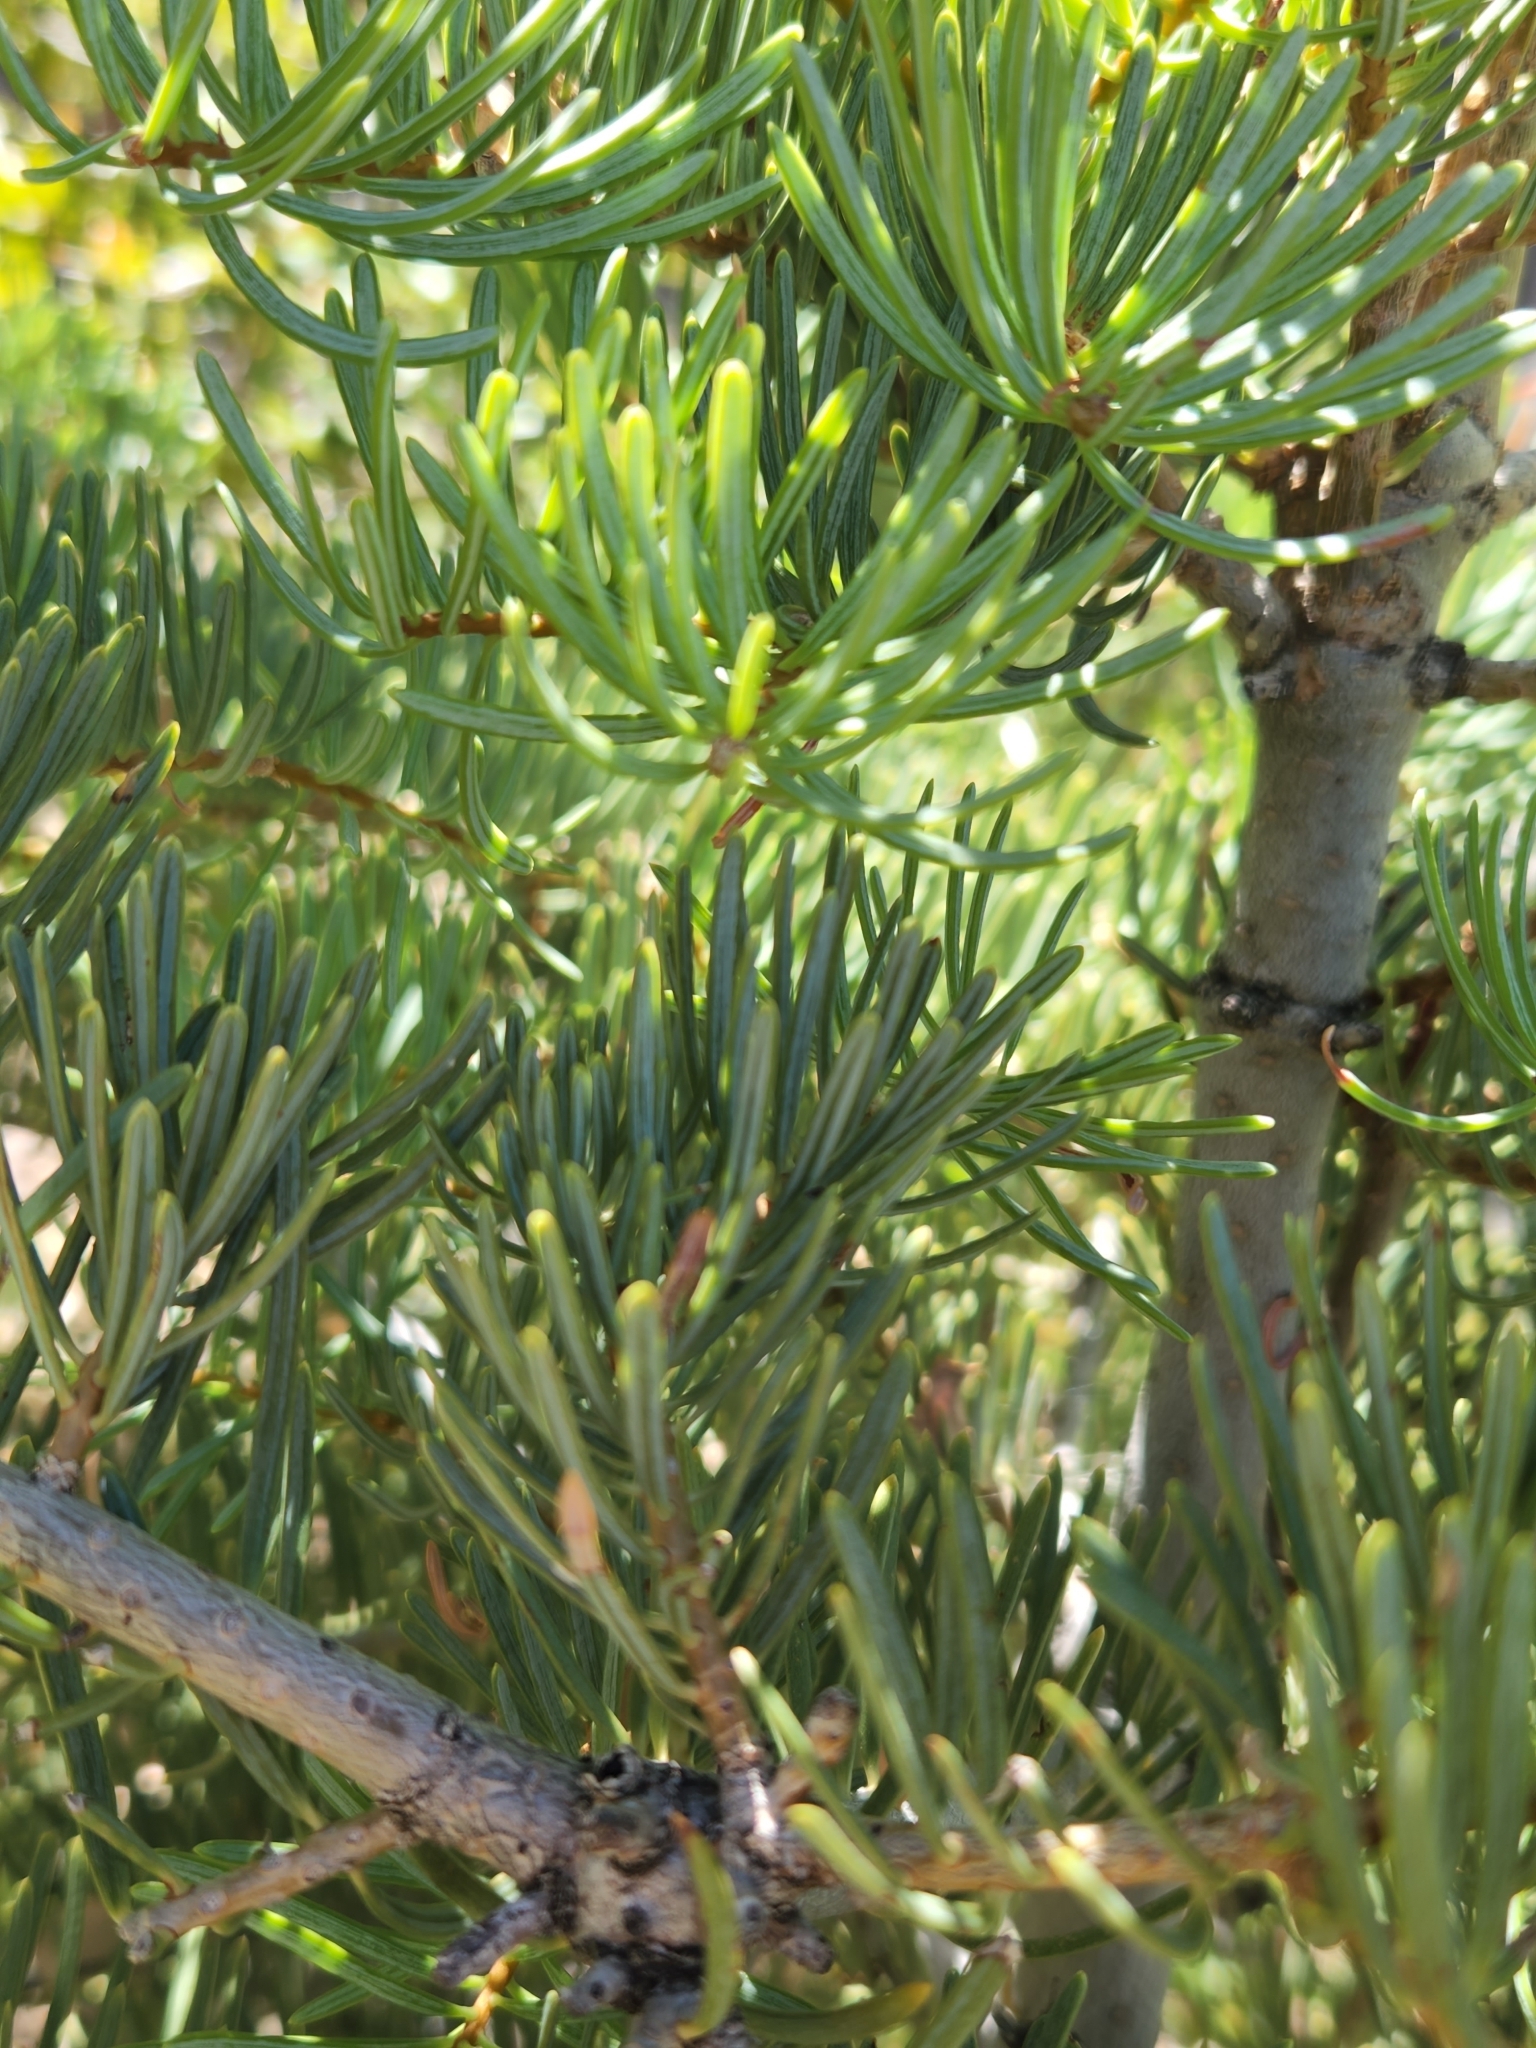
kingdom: Plantae
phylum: Tracheophyta
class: Pinopsida
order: Pinales
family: Pinaceae
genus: Abies
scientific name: Abies concolor
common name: Colorado fir
